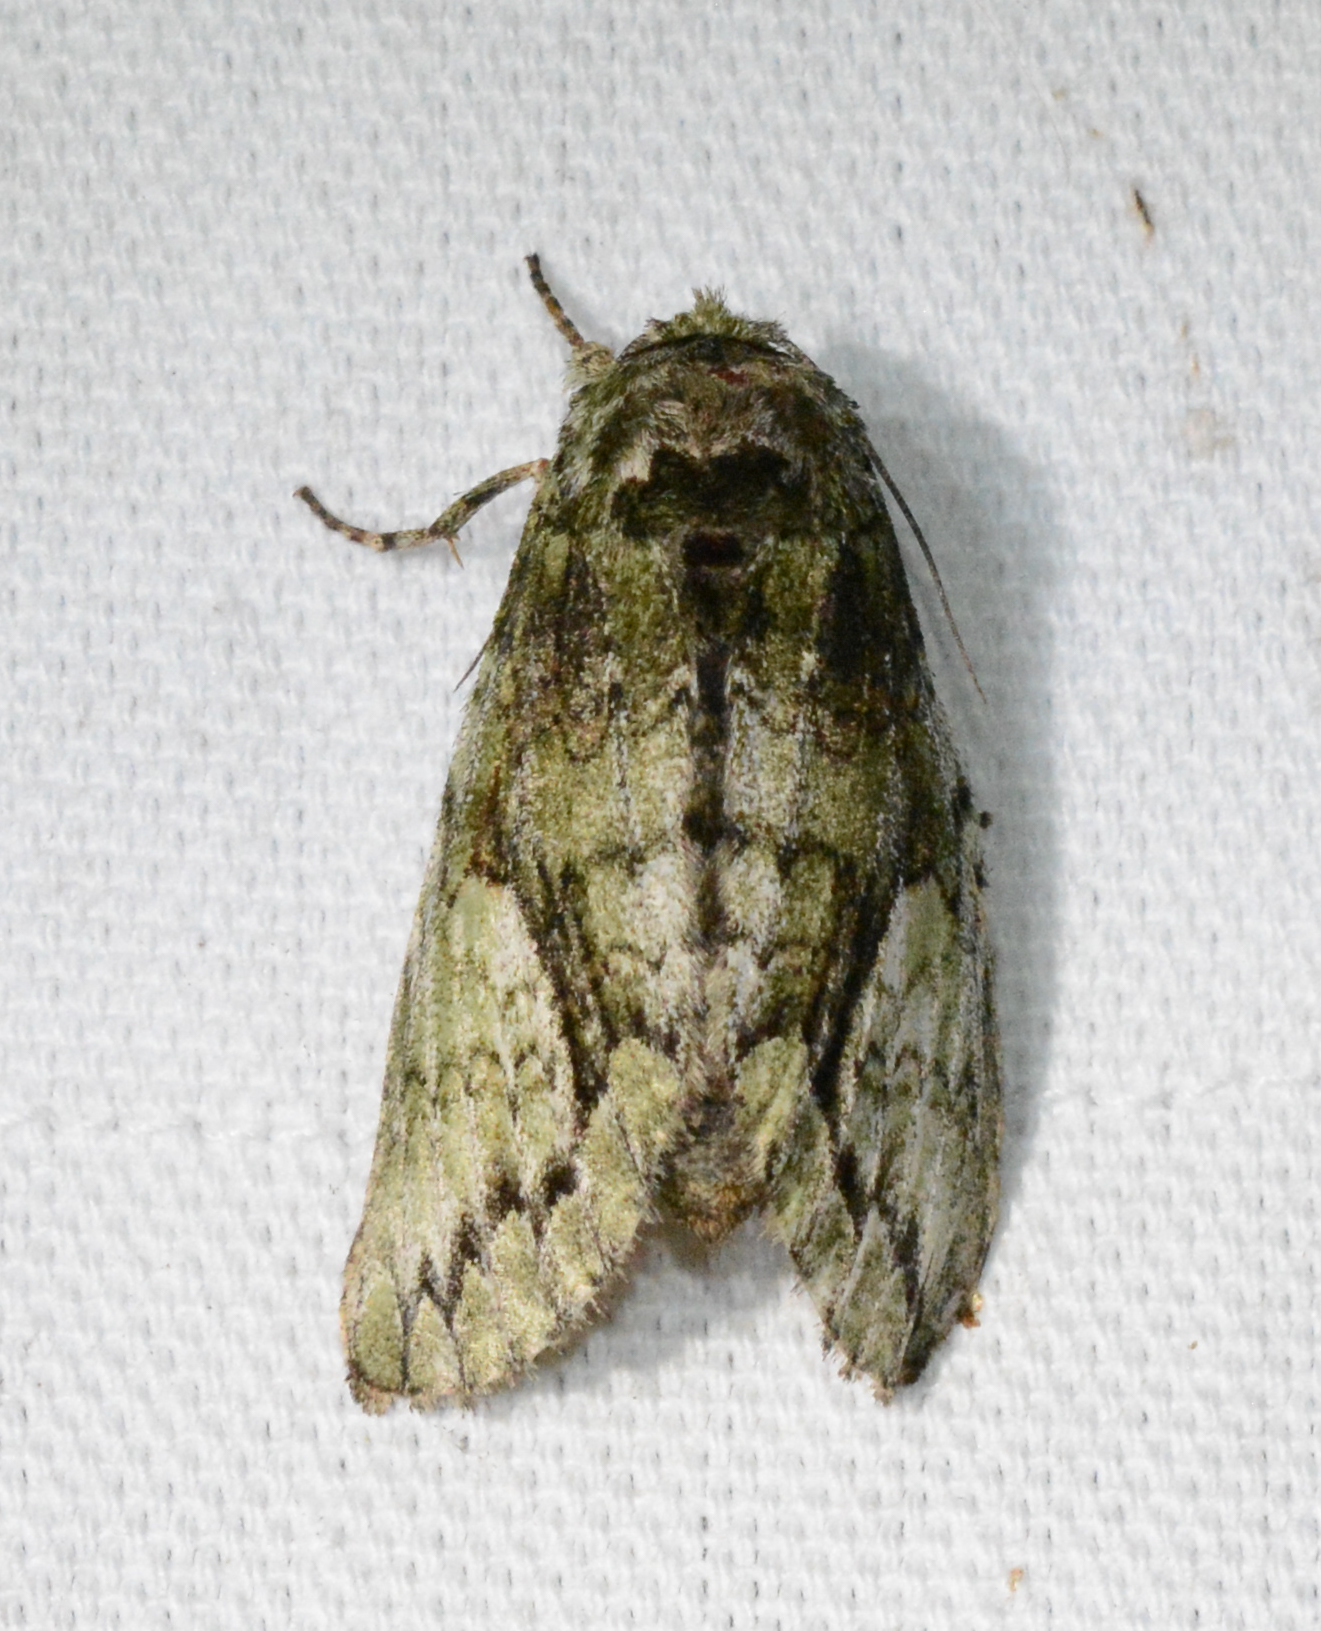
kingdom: Animalia
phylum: Arthropoda
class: Insecta
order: Lepidoptera
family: Notodontidae
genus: Heterocampa
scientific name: Heterocampa
